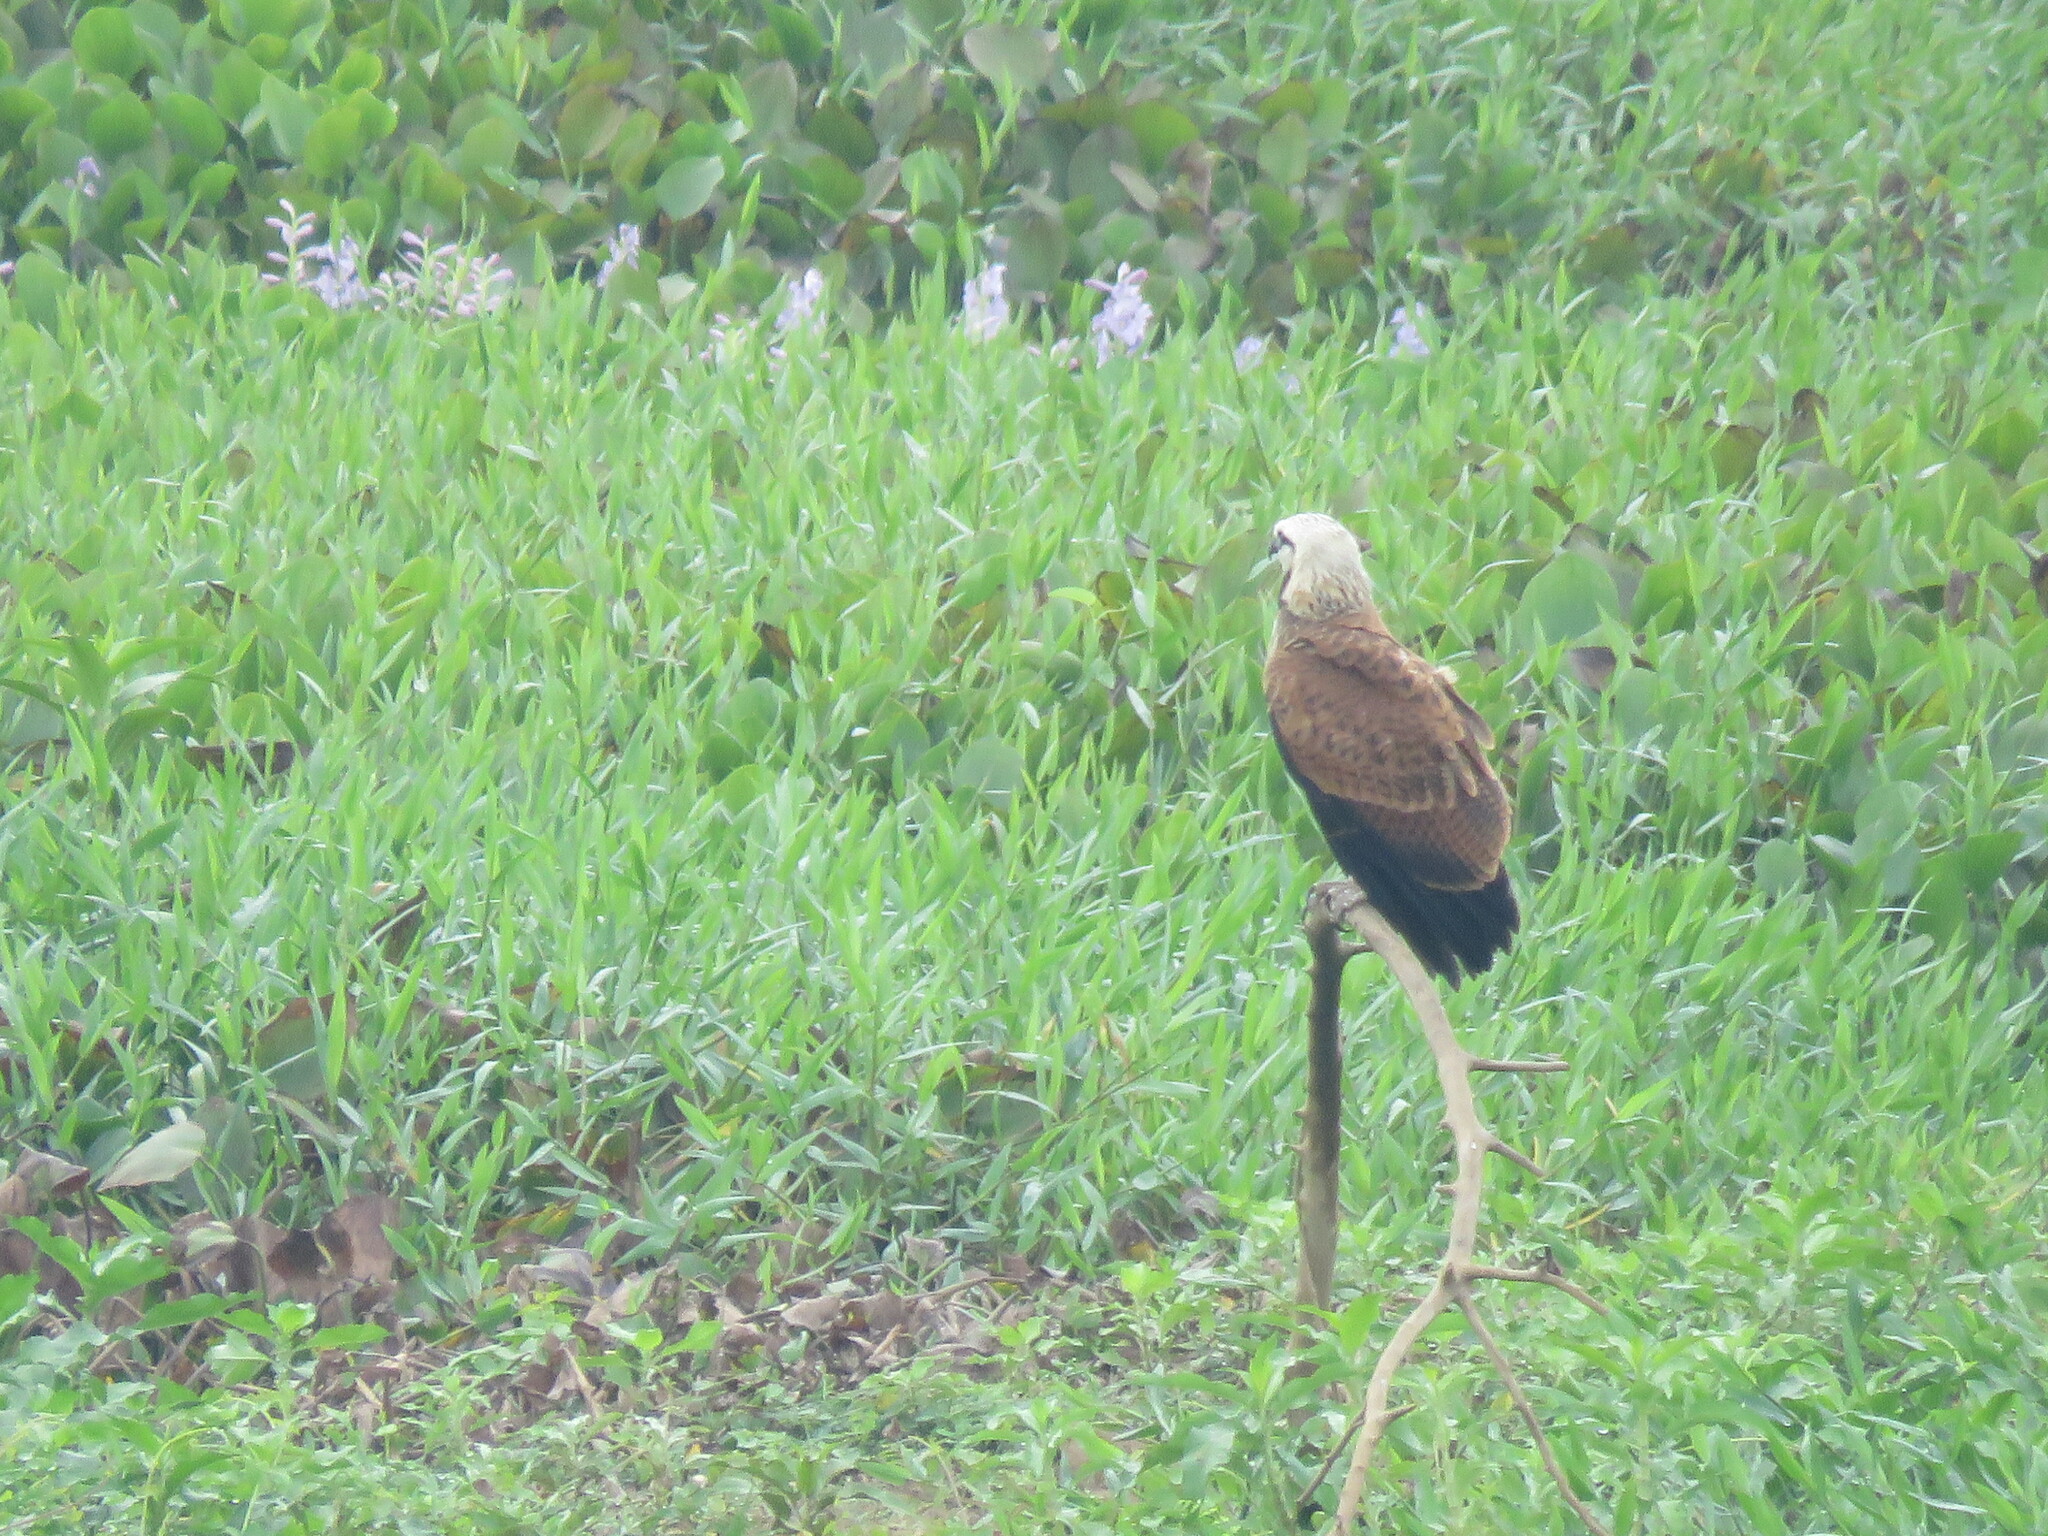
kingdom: Animalia
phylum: Chordata
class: Aves
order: Accipitriformes
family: Accipitridae
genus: Busarellus
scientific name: Busarellus nigricollis
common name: Black-collared hawk
